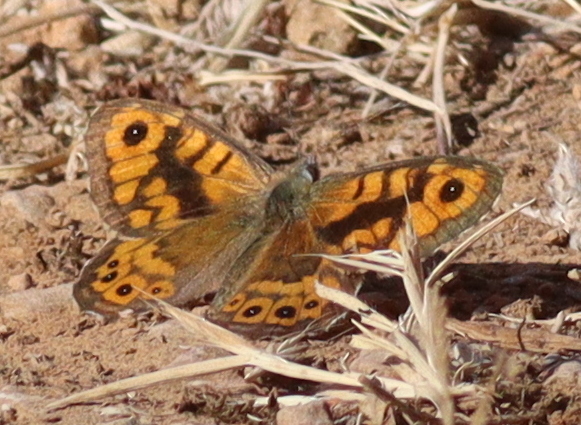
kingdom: Animalia
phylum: Arthropoda
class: Insecta
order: Lepidoptera
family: Nymphalidae
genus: Pararge
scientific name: Pararge Lasiommata megera
